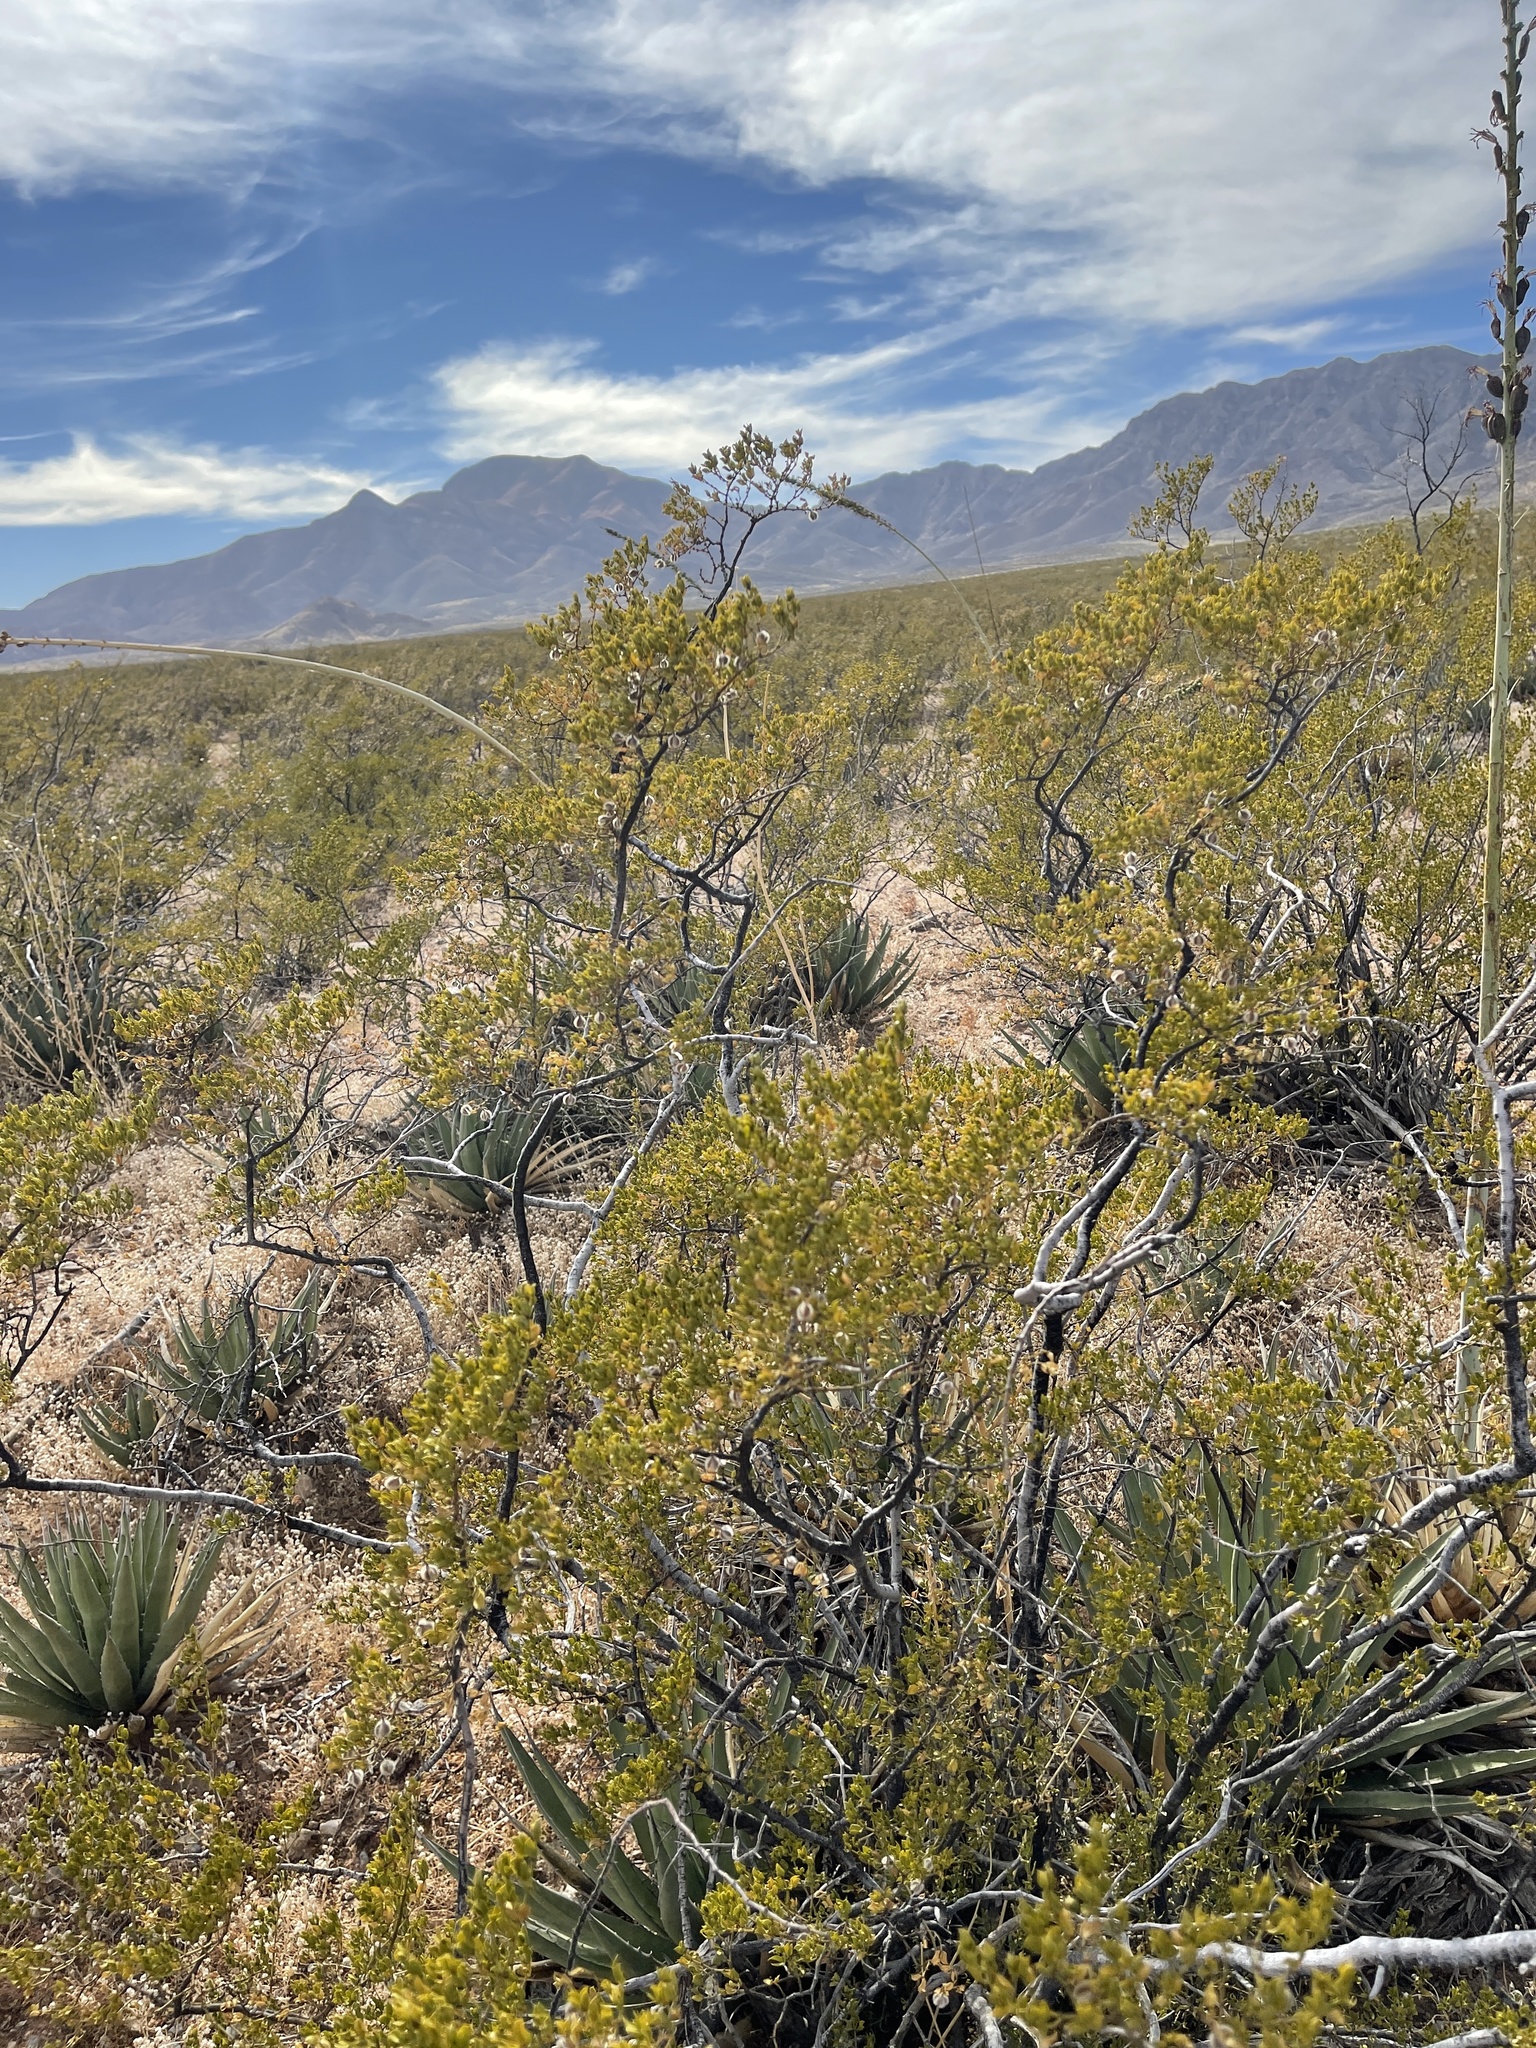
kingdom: Plantae
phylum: Tracheophyta
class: Magnoliopsida
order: Zygophyllales
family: Zygophyllaceae
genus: Larrea
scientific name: Larrea tridentata
